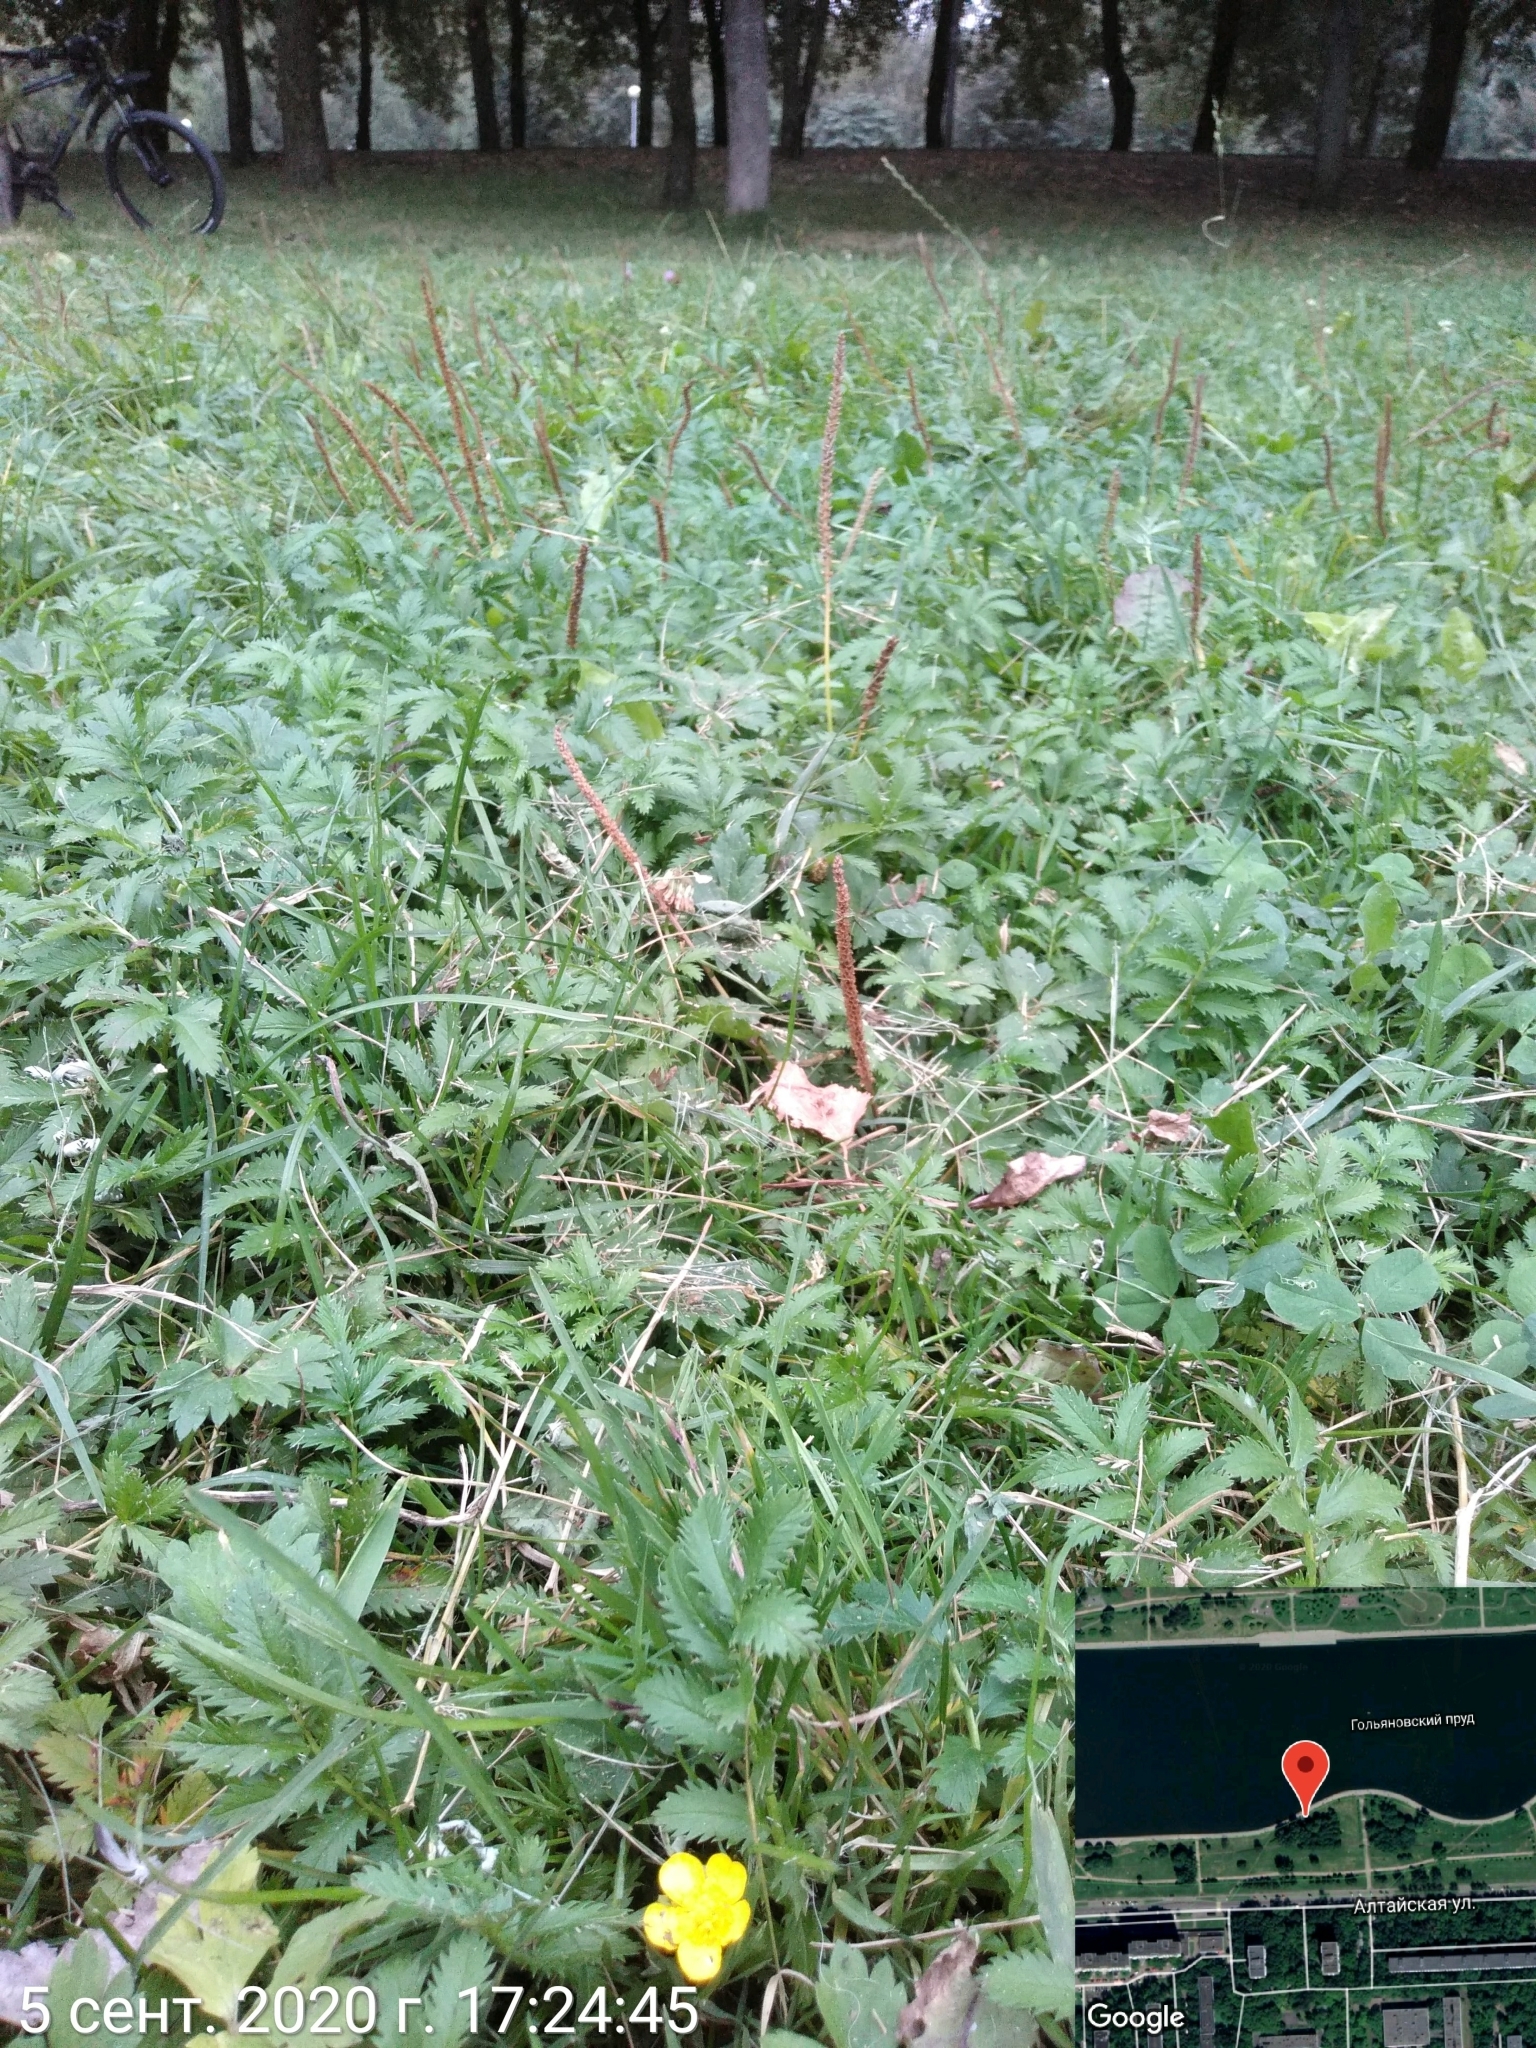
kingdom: Plantae
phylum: Tracheophyta
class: Magnoliopsida
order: Rosales
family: Rosaceae
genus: Argentina
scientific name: Argentina anserina
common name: Common silverweed
